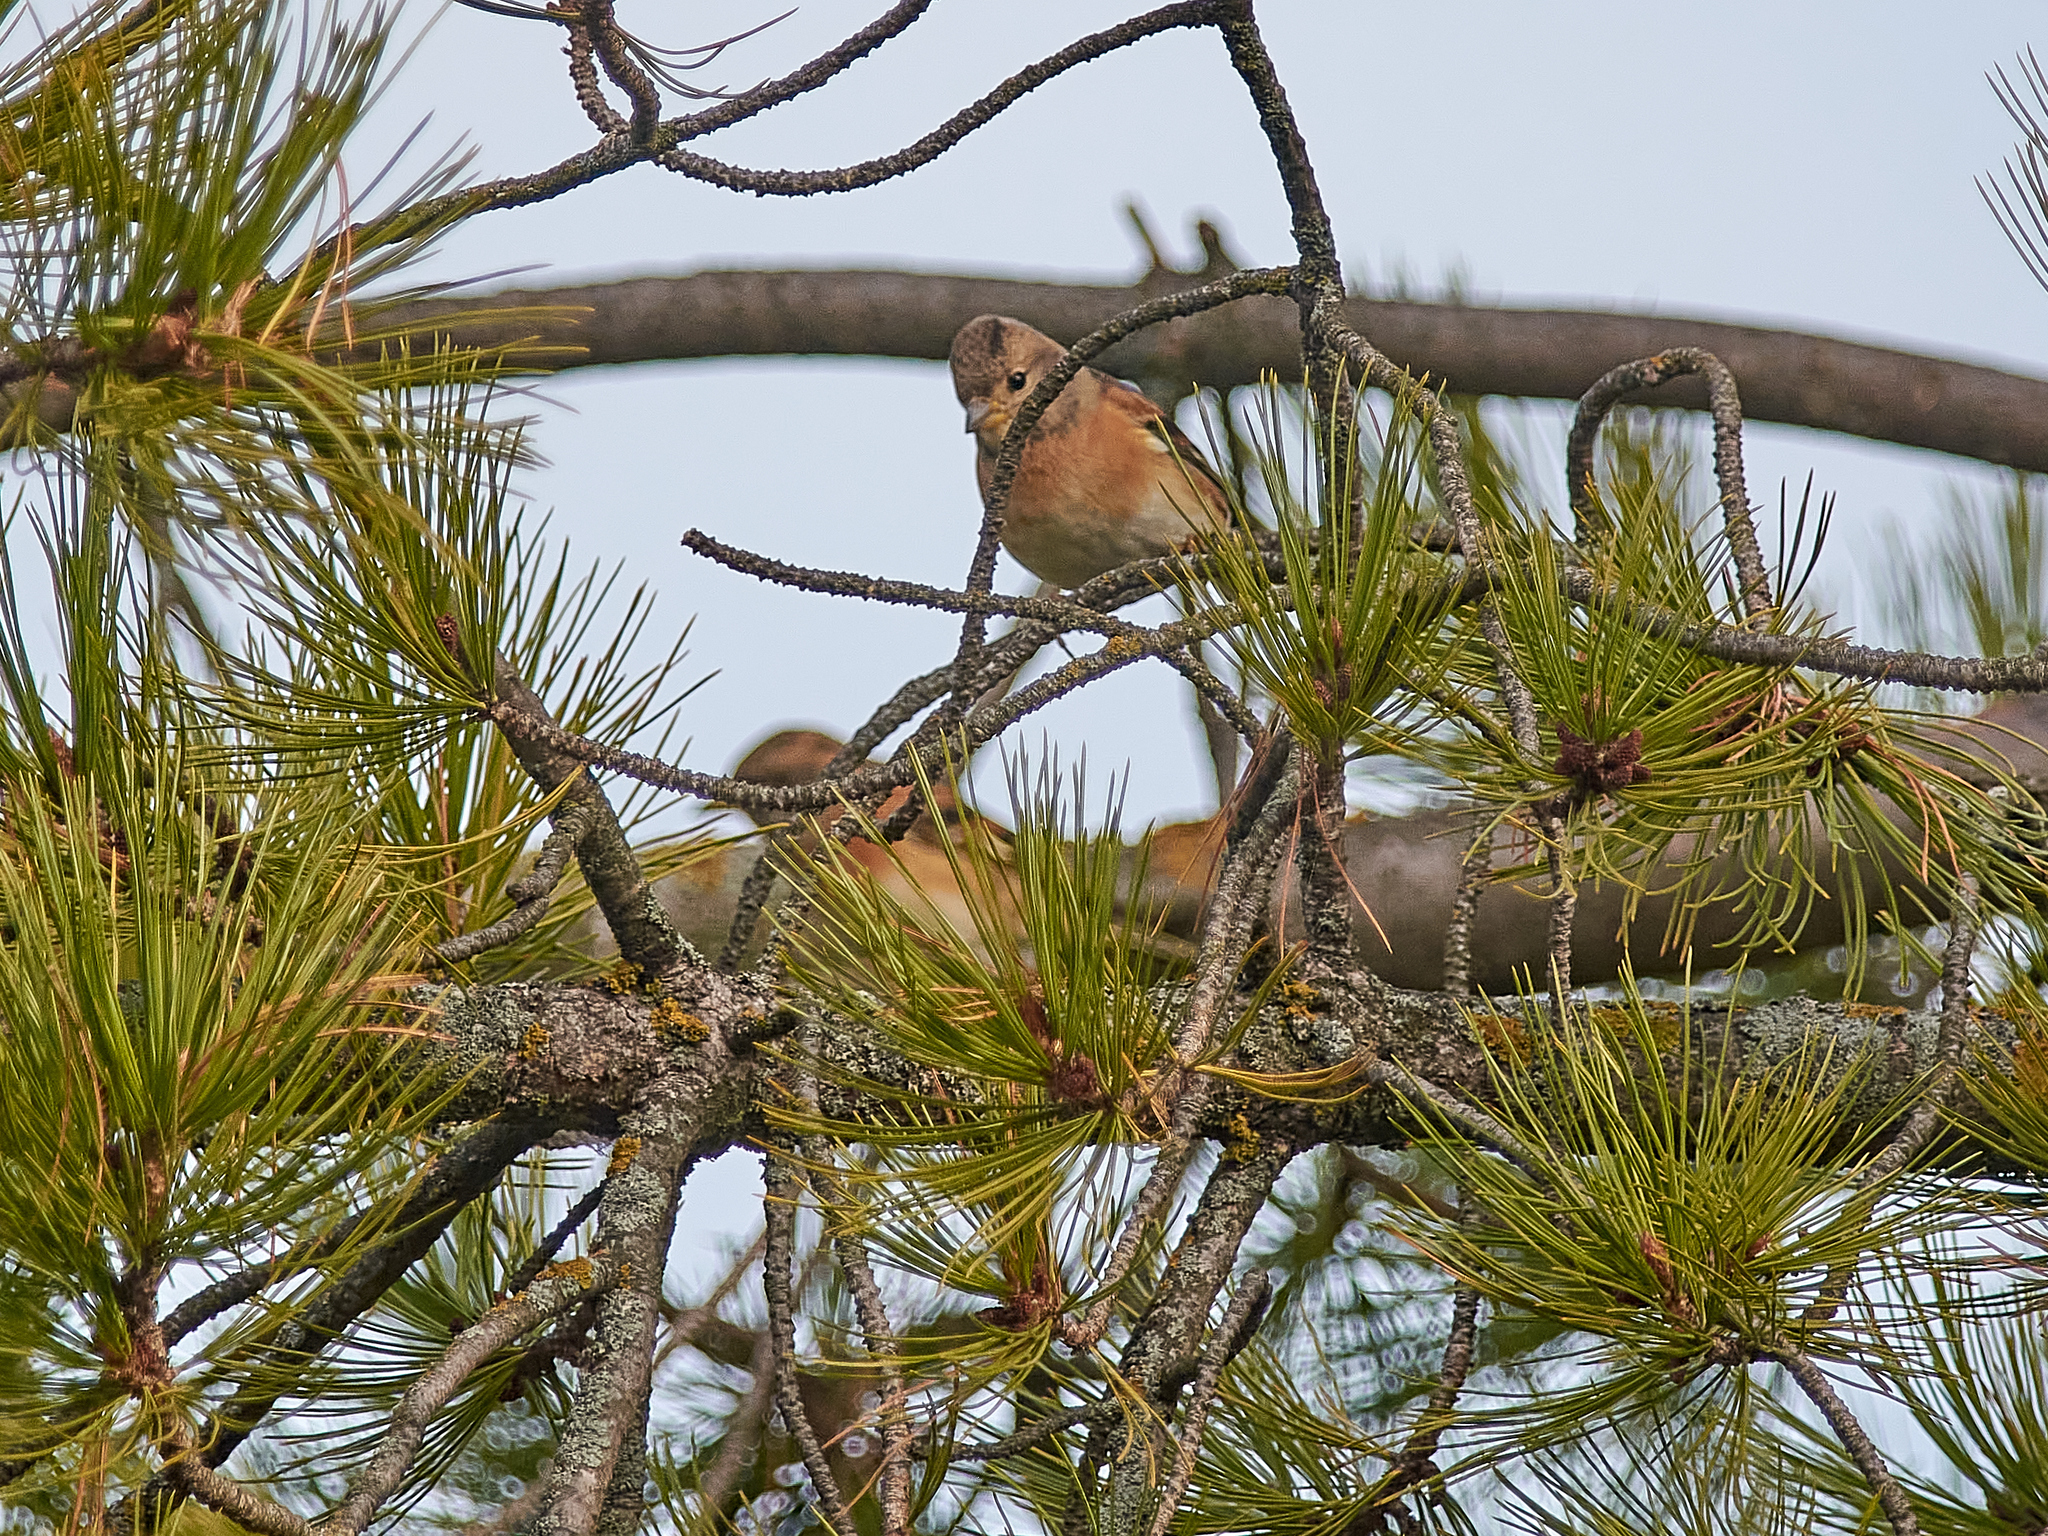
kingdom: Animalia
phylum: Chordata
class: Aves
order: Passeriformes
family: Fringillidae
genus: Fringilla
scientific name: Fringilla montifringilla
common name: Brambling
